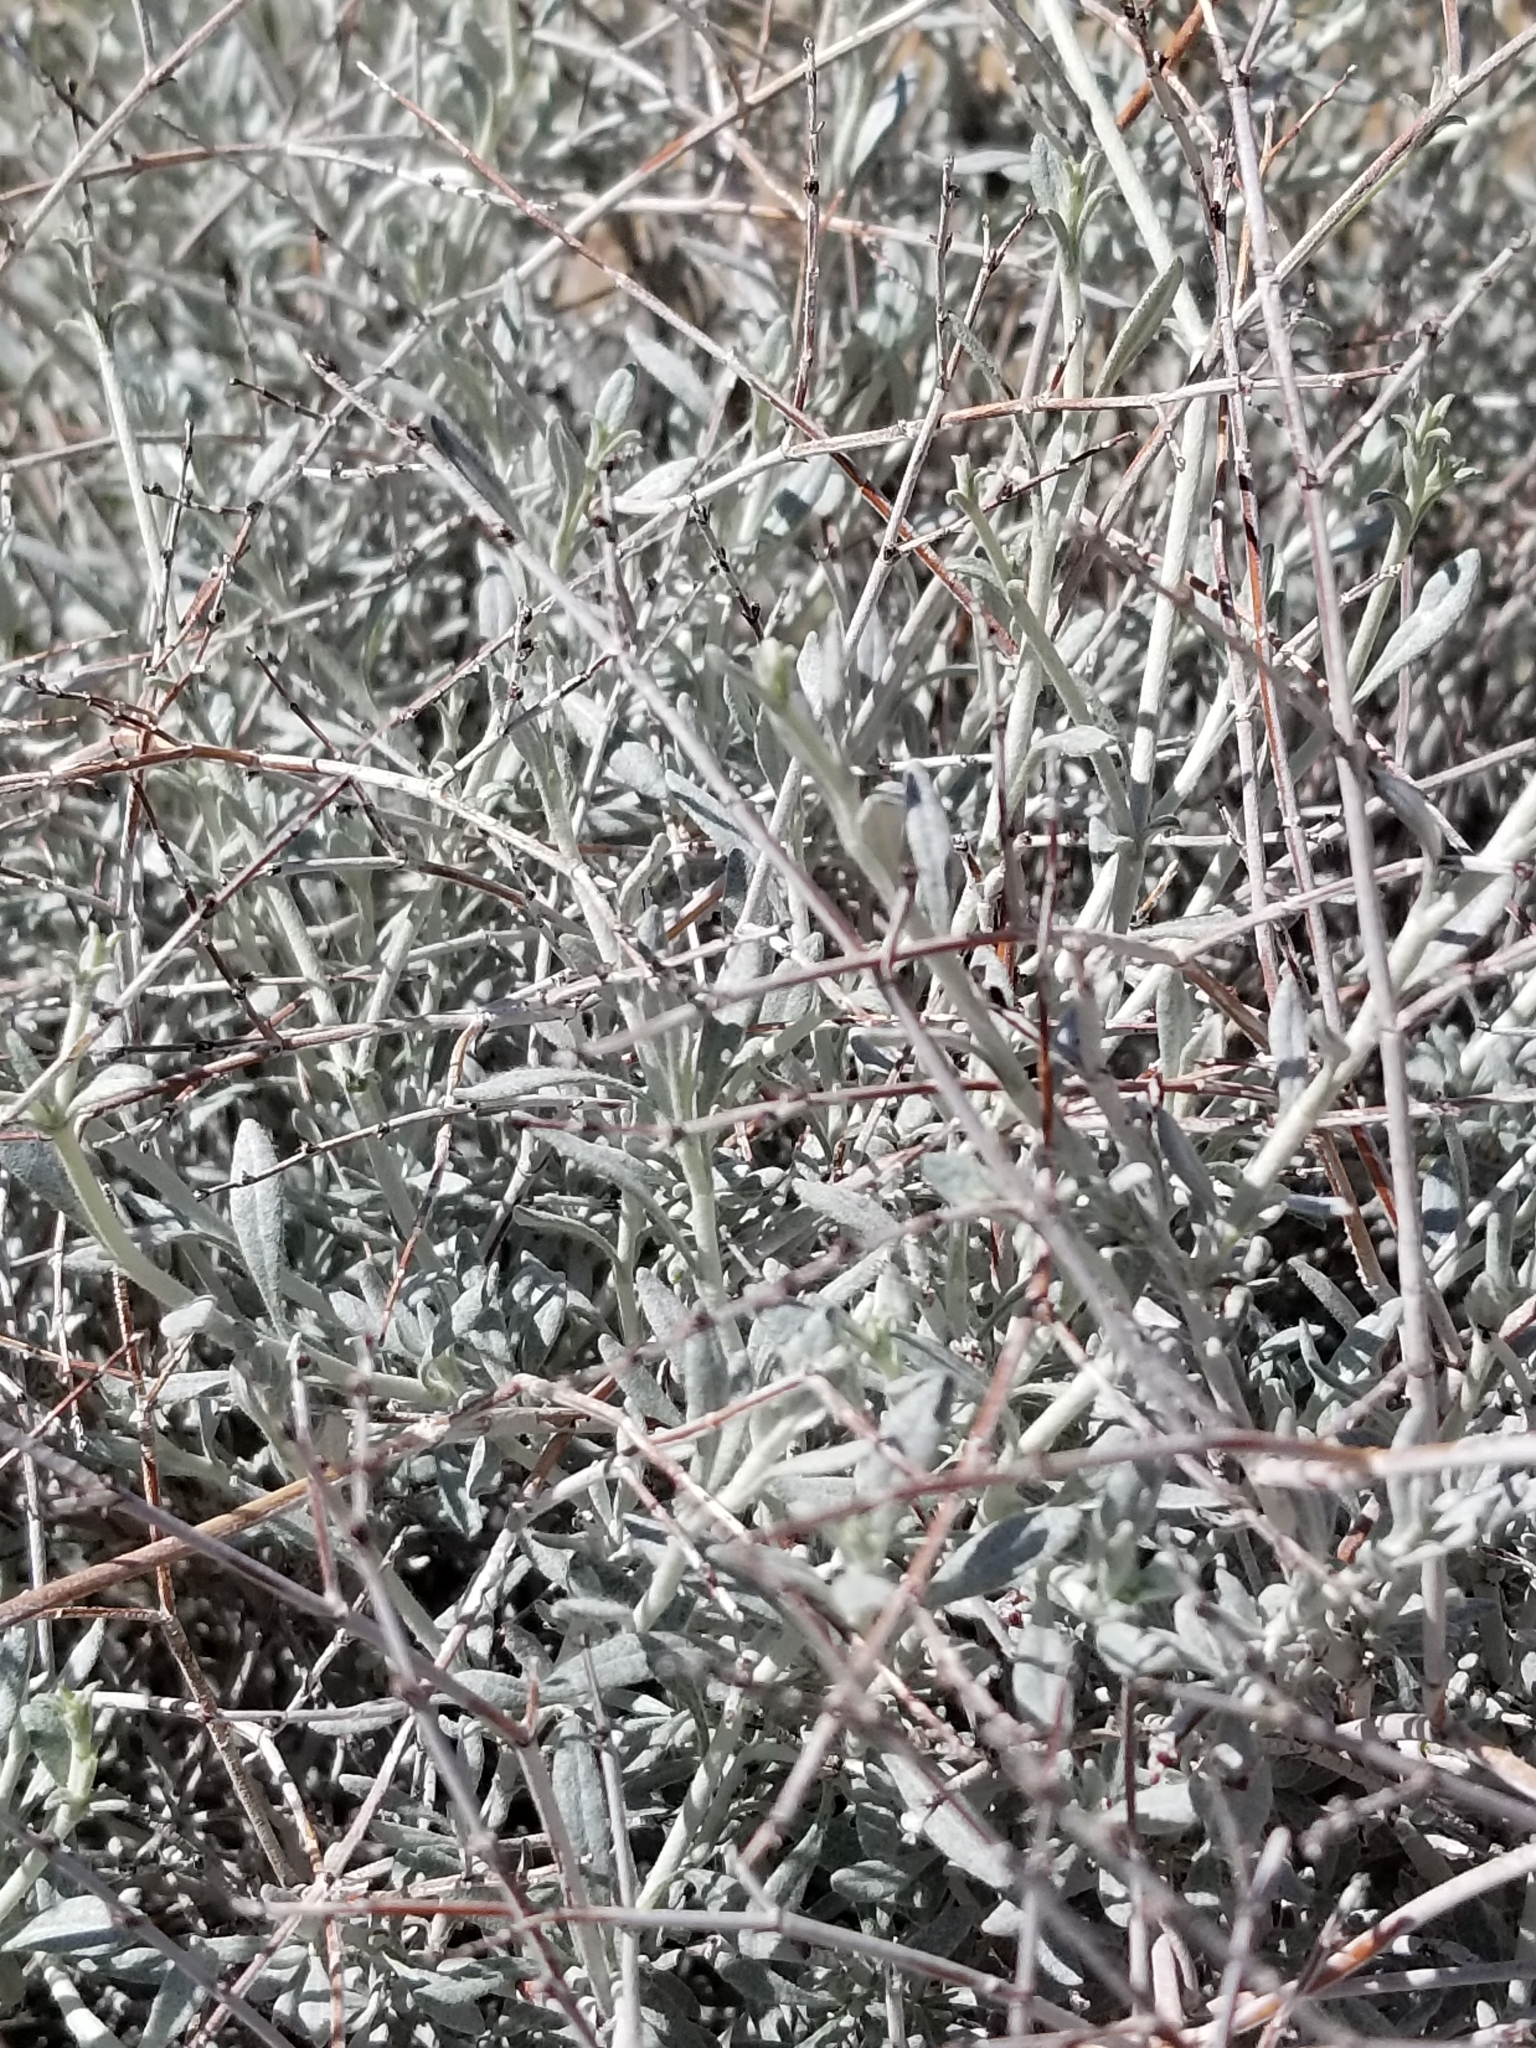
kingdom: Plantae
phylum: Tracheophyta
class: Magnoliopsida
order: Caryophyllales
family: Polygonaceae
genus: Eriogonum
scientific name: Eriogonum wrightii
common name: Bastard-sage
